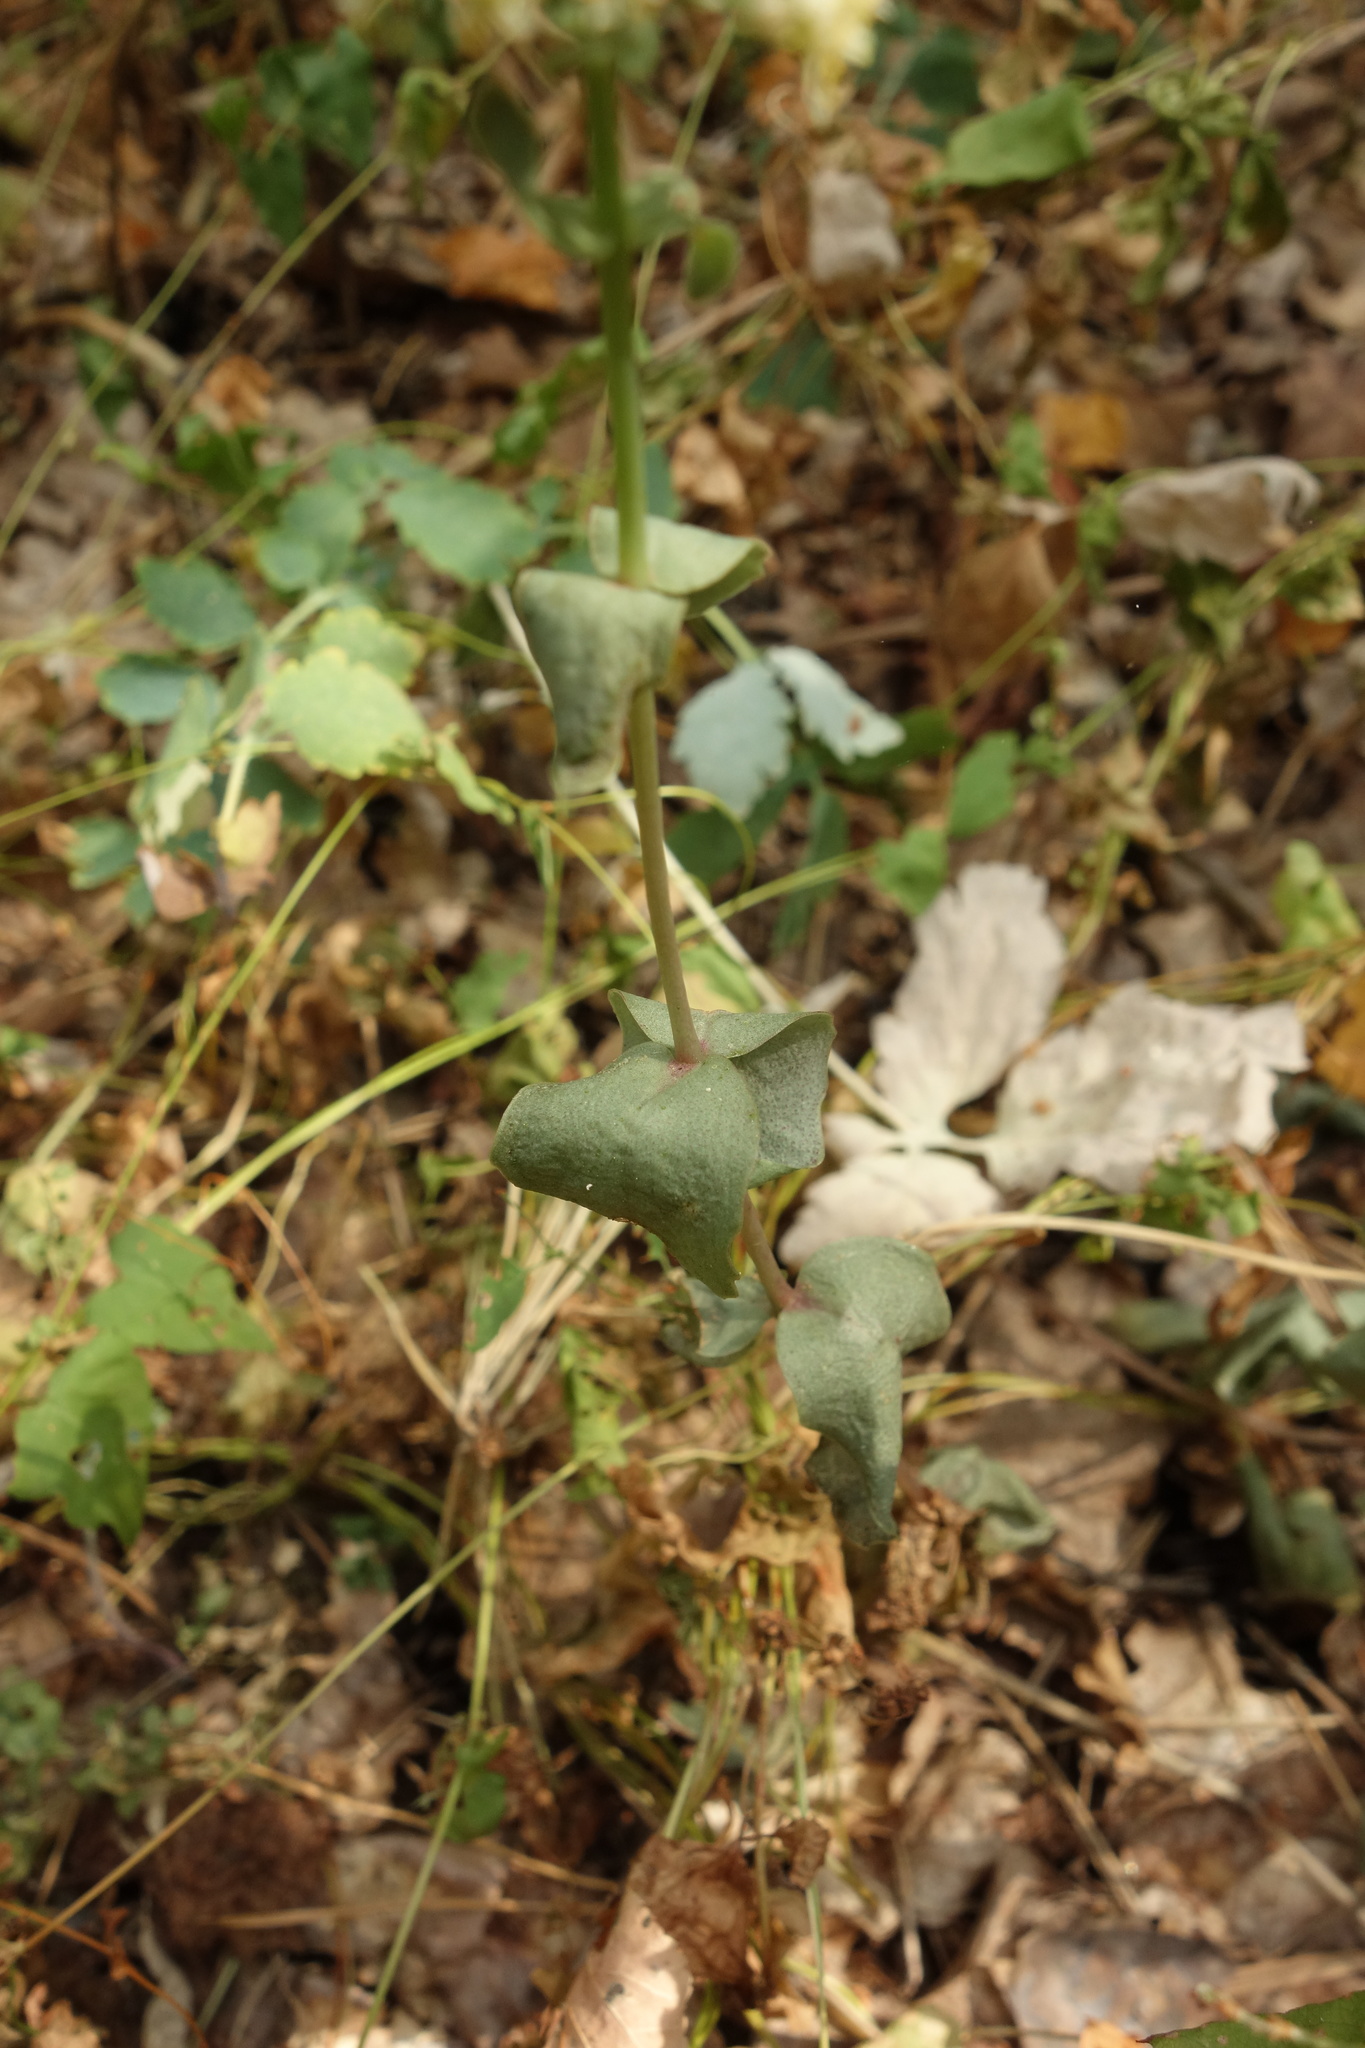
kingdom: Plantae
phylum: Tracheophyta
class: Magnoliopsida
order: Saxifragales
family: Crassulaceae
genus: Hylotelephium
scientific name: Hylotelephium maximum
